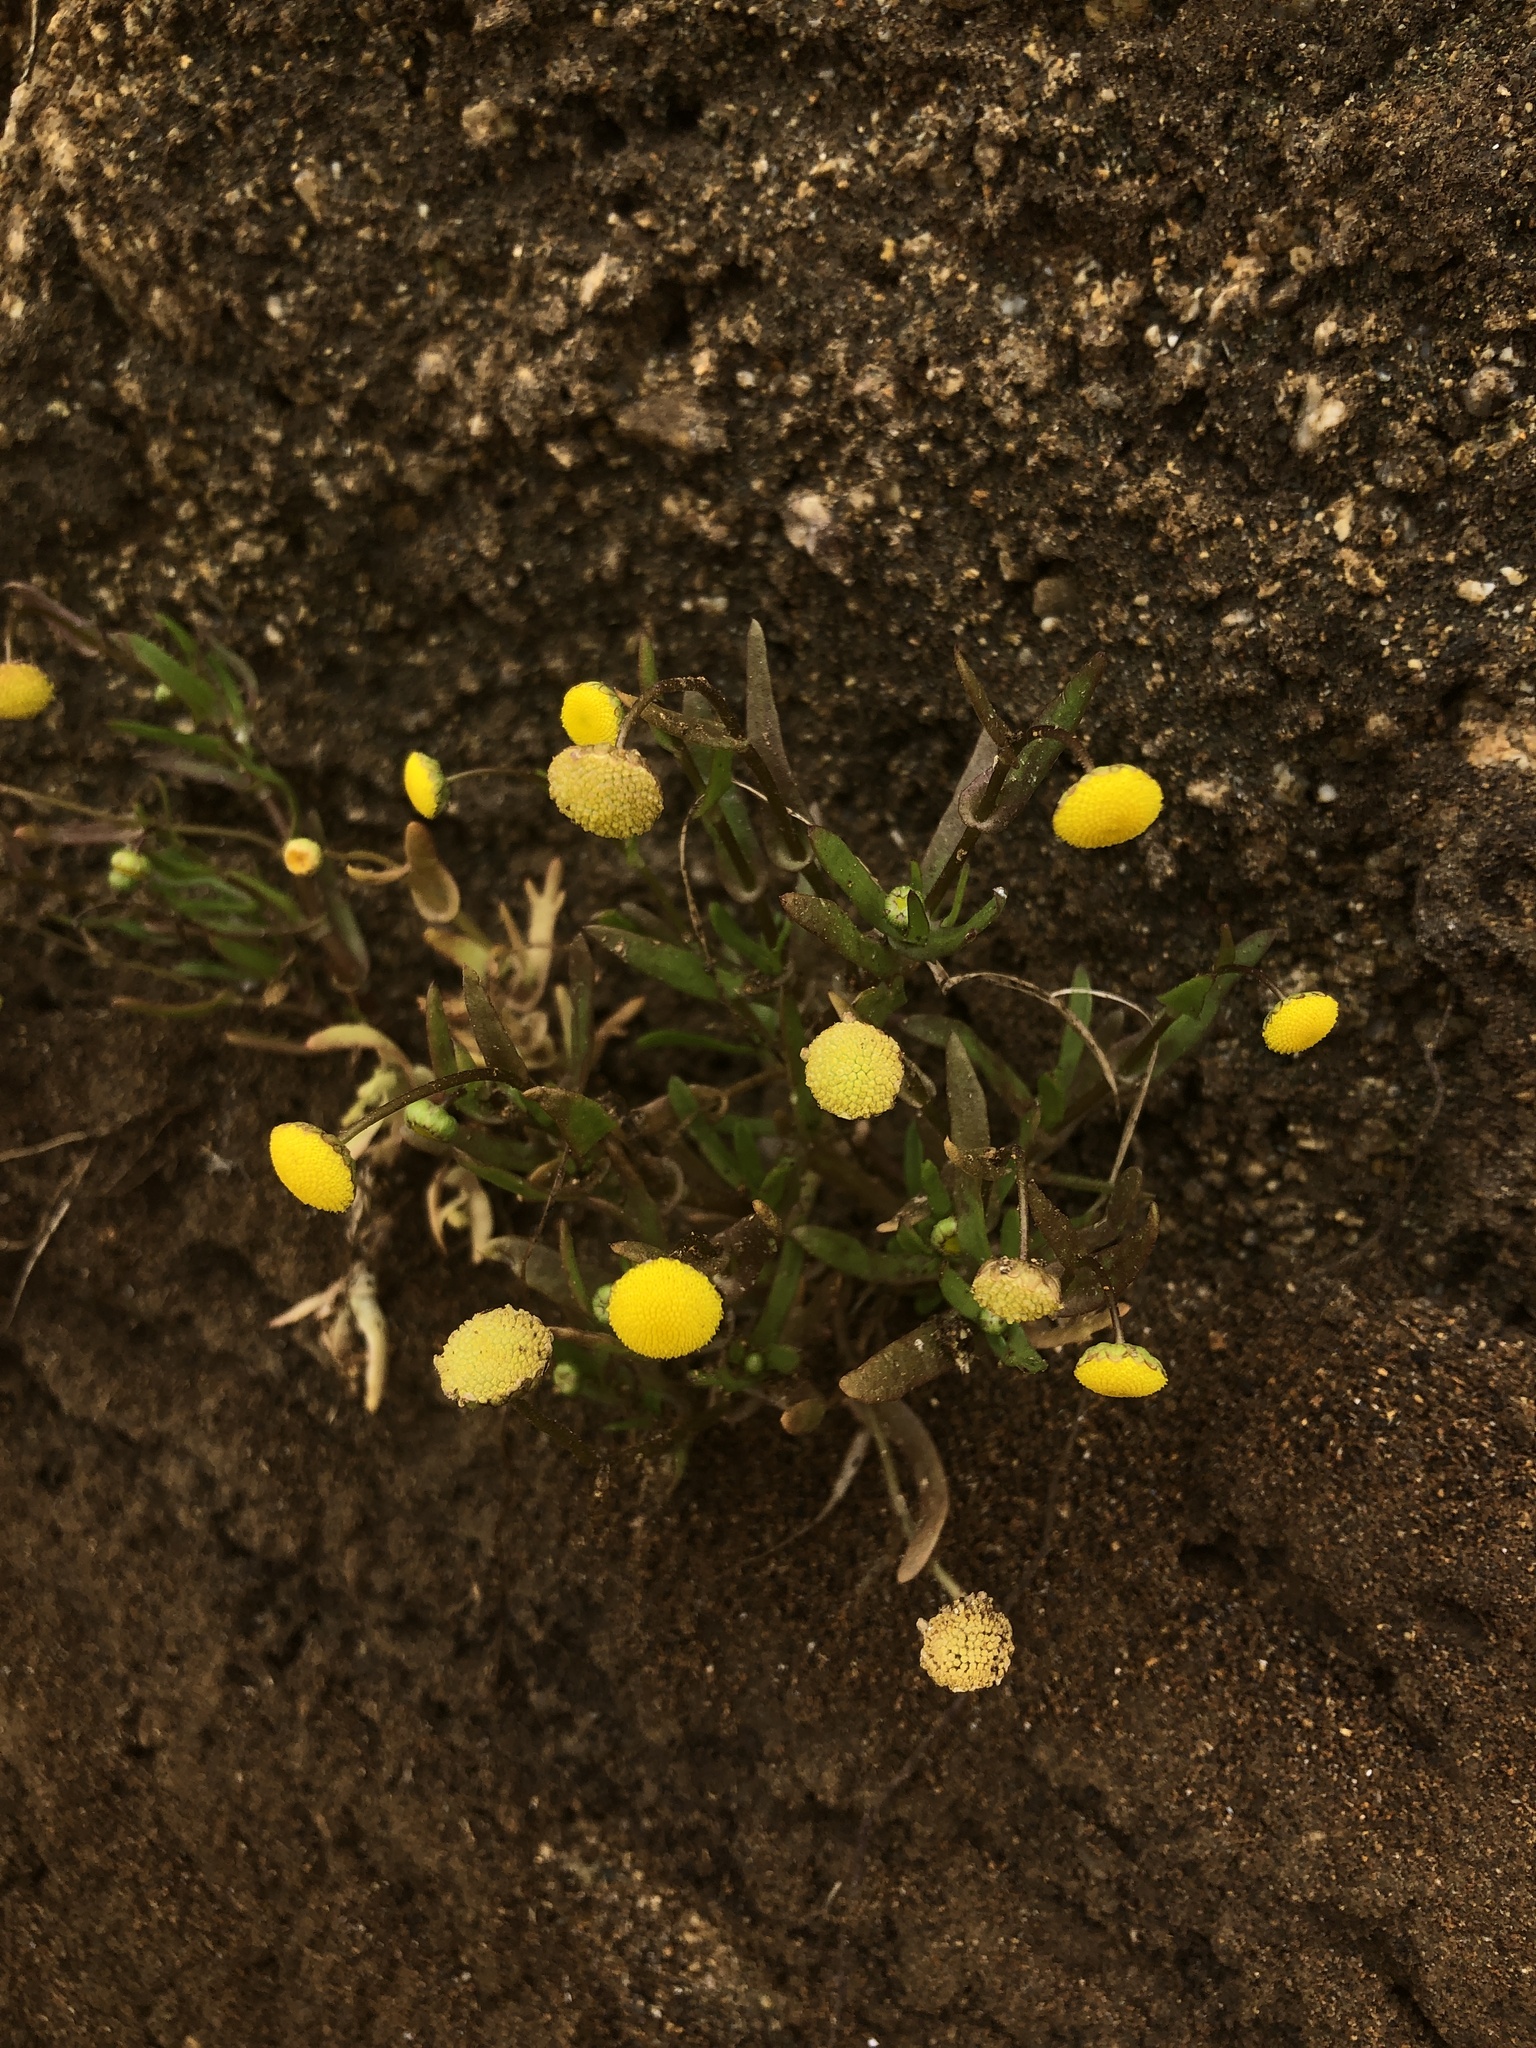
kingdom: Plantae
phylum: Tracheophyta
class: Magnoliopsida
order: Asterales
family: Asteraceae
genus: Cotula
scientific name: Cotula coronopifolia
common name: Buttonweed
